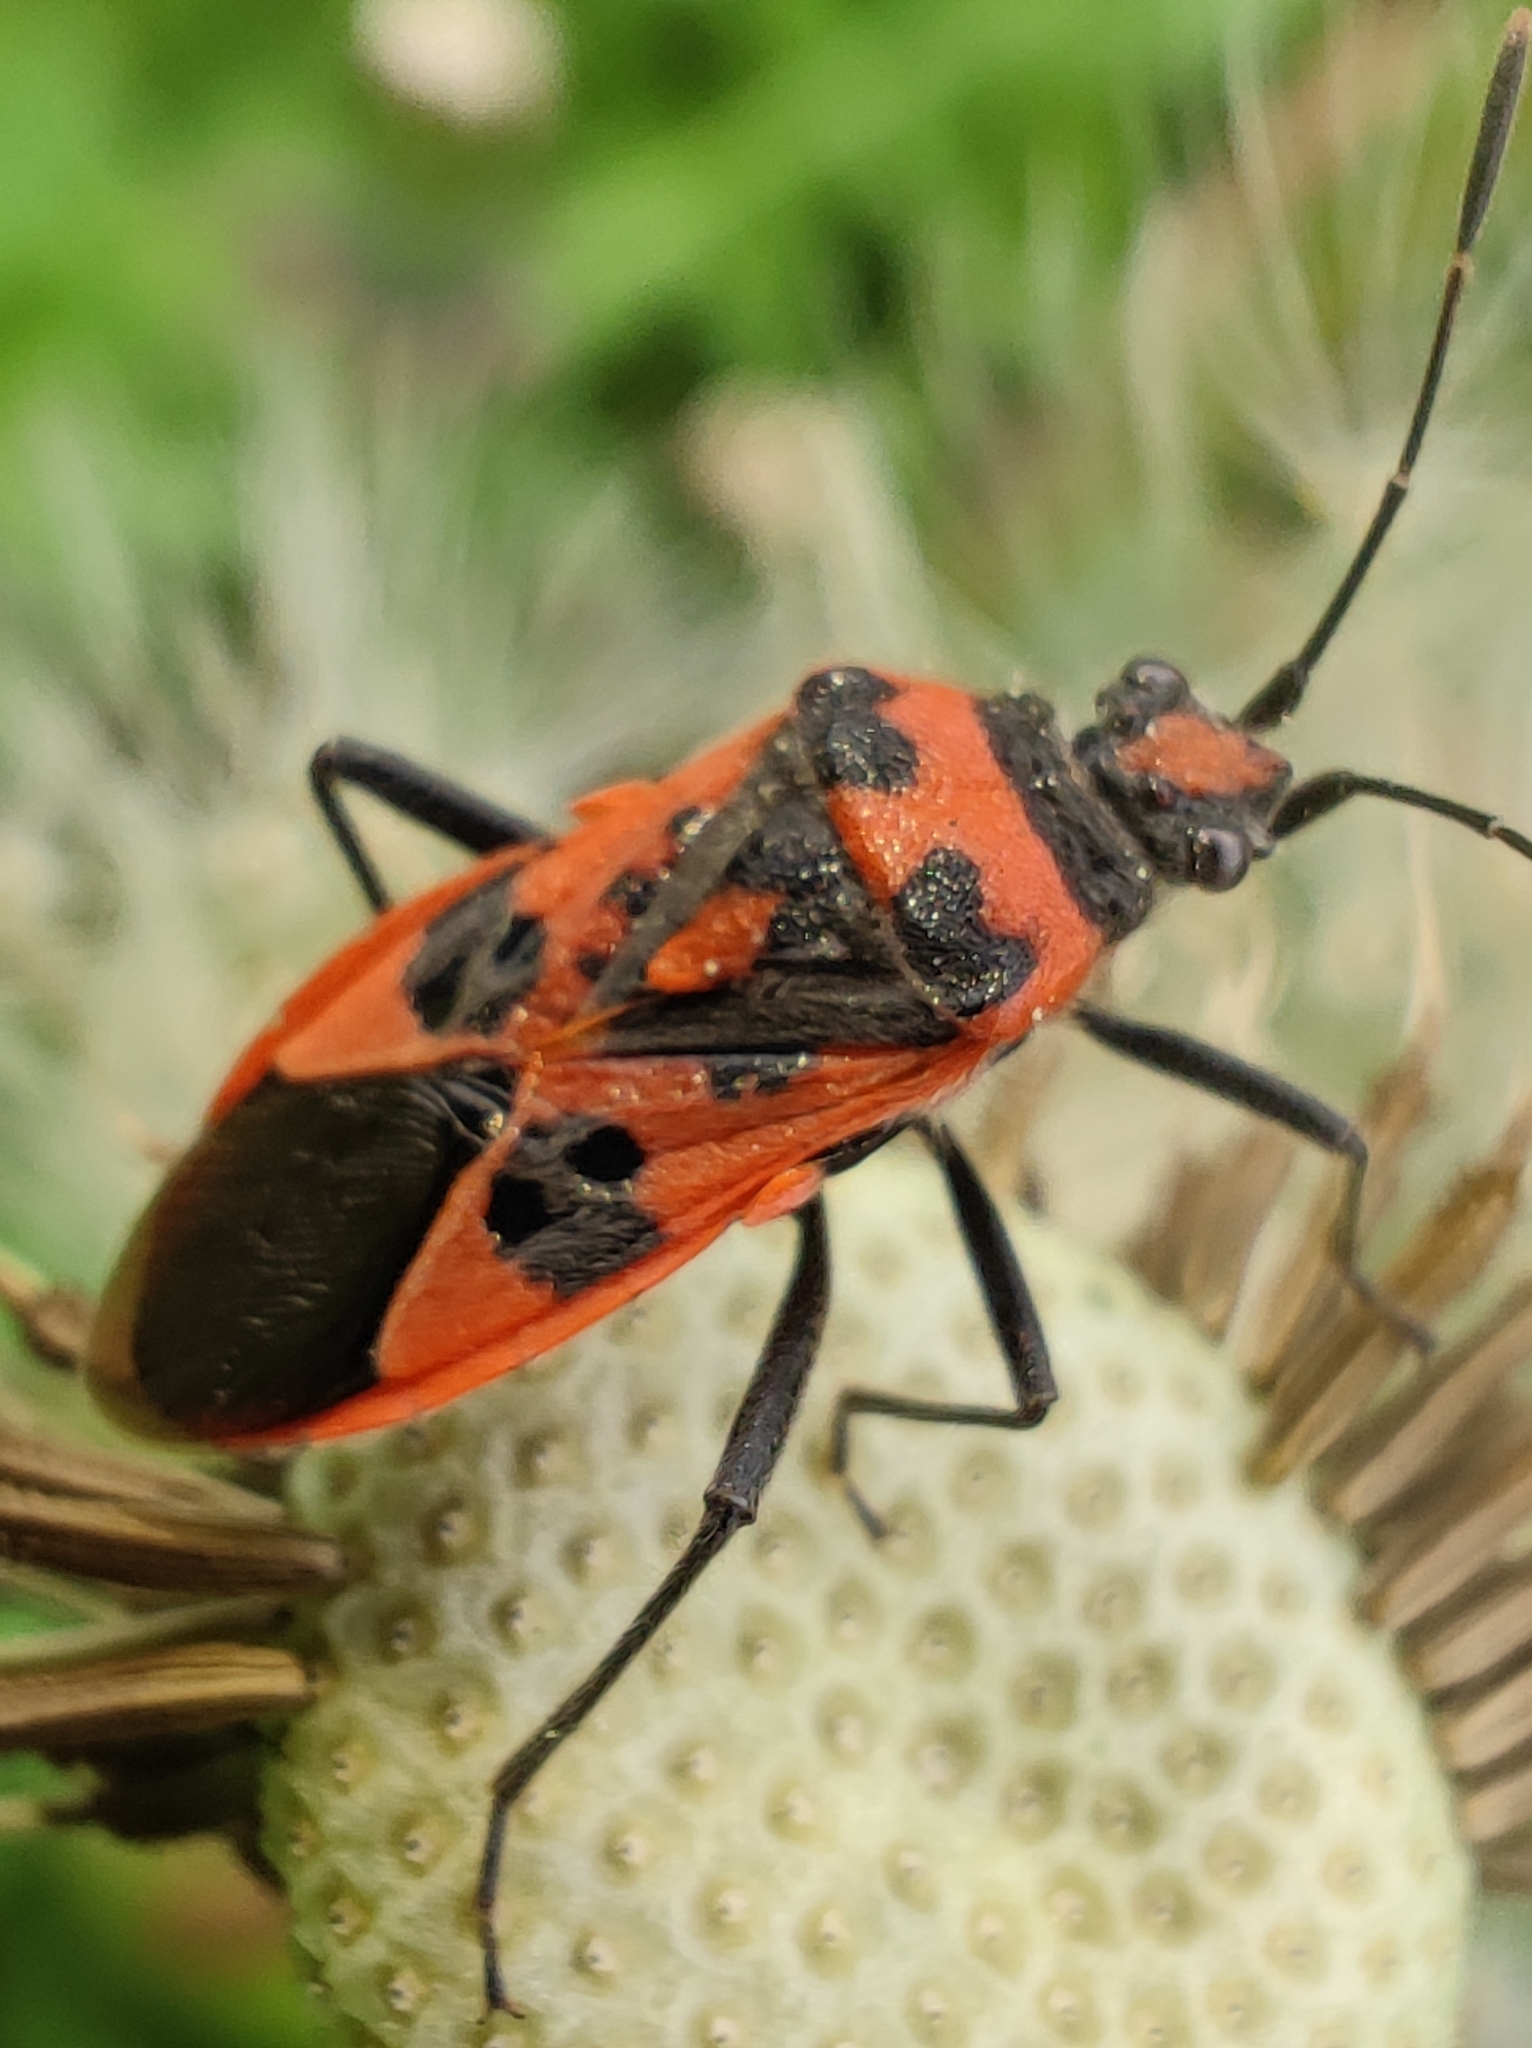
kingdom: Animalia
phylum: Arthropoda
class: Insecta
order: Hemiptera
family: Rhopalidae
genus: Corizus
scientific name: Corizus hyoscyami
